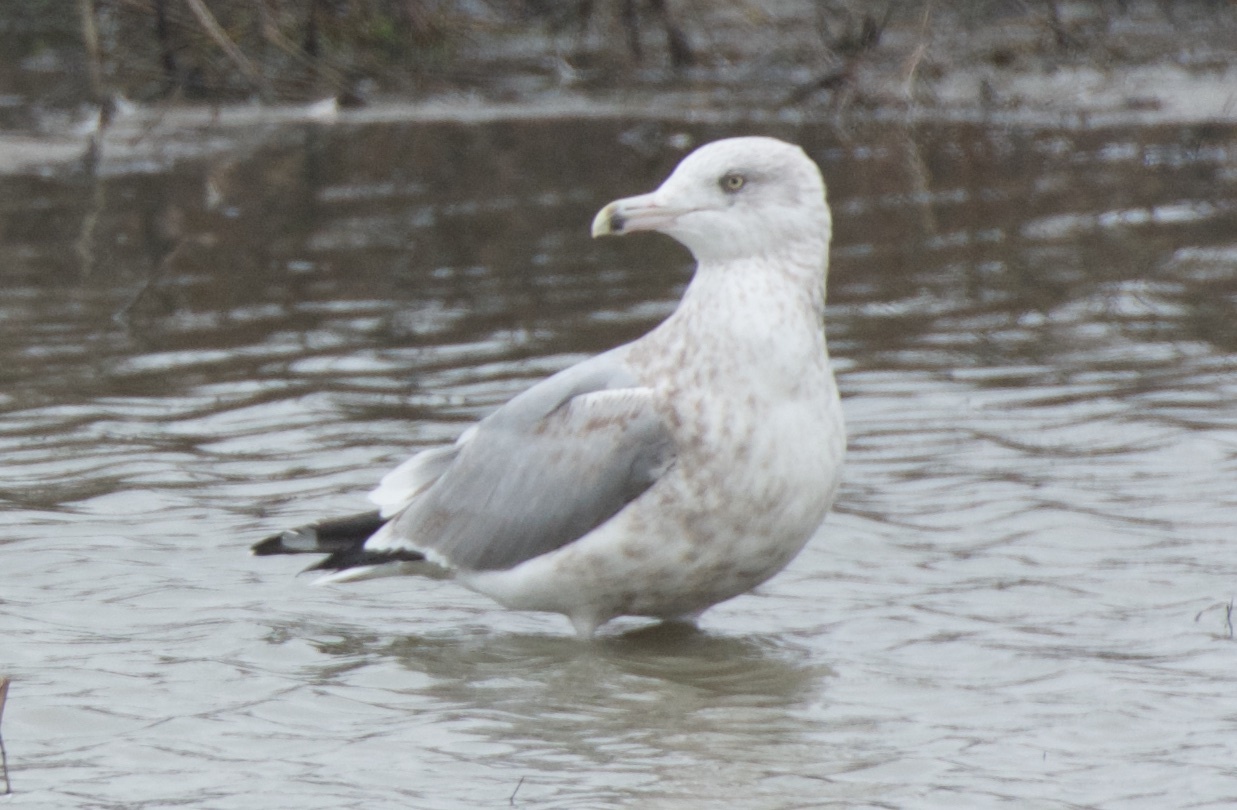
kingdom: Animalia
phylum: Chordata
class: Aves
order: Charadriiformes
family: Laridae
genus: Larus
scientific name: Larus argentatus
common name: Herring gull
